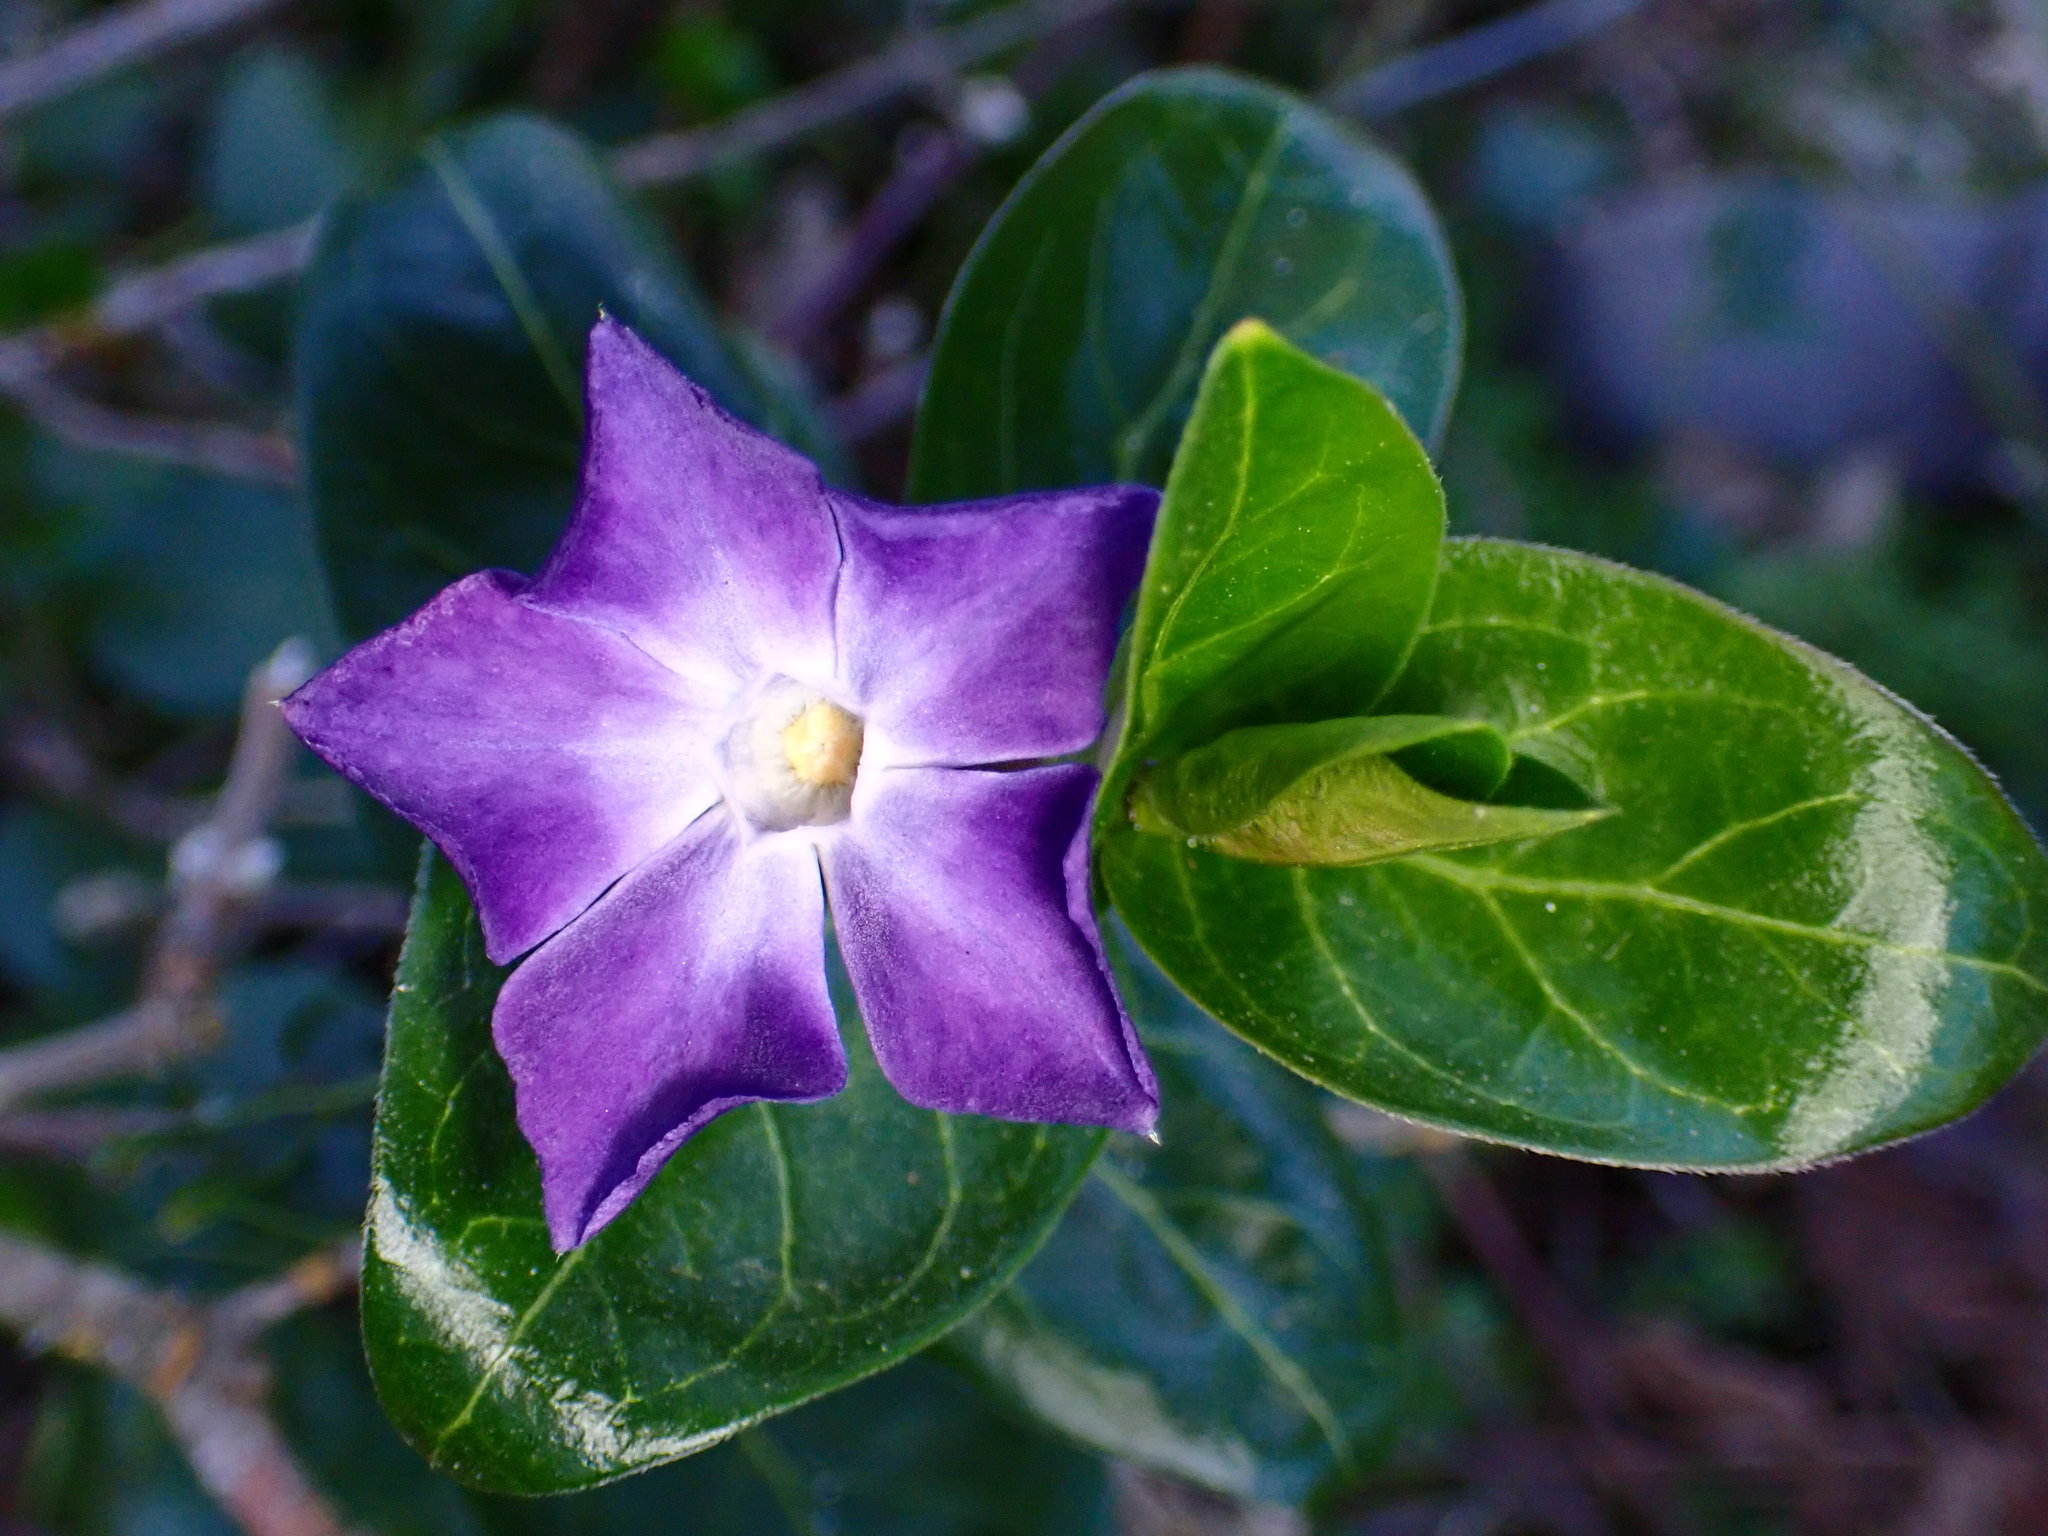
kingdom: Plantae
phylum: Tracheophyta
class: Magnoliopsida
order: Gentianales
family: Apocynaceae
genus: Vinca
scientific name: Vinca major
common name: Greater periwinkle
